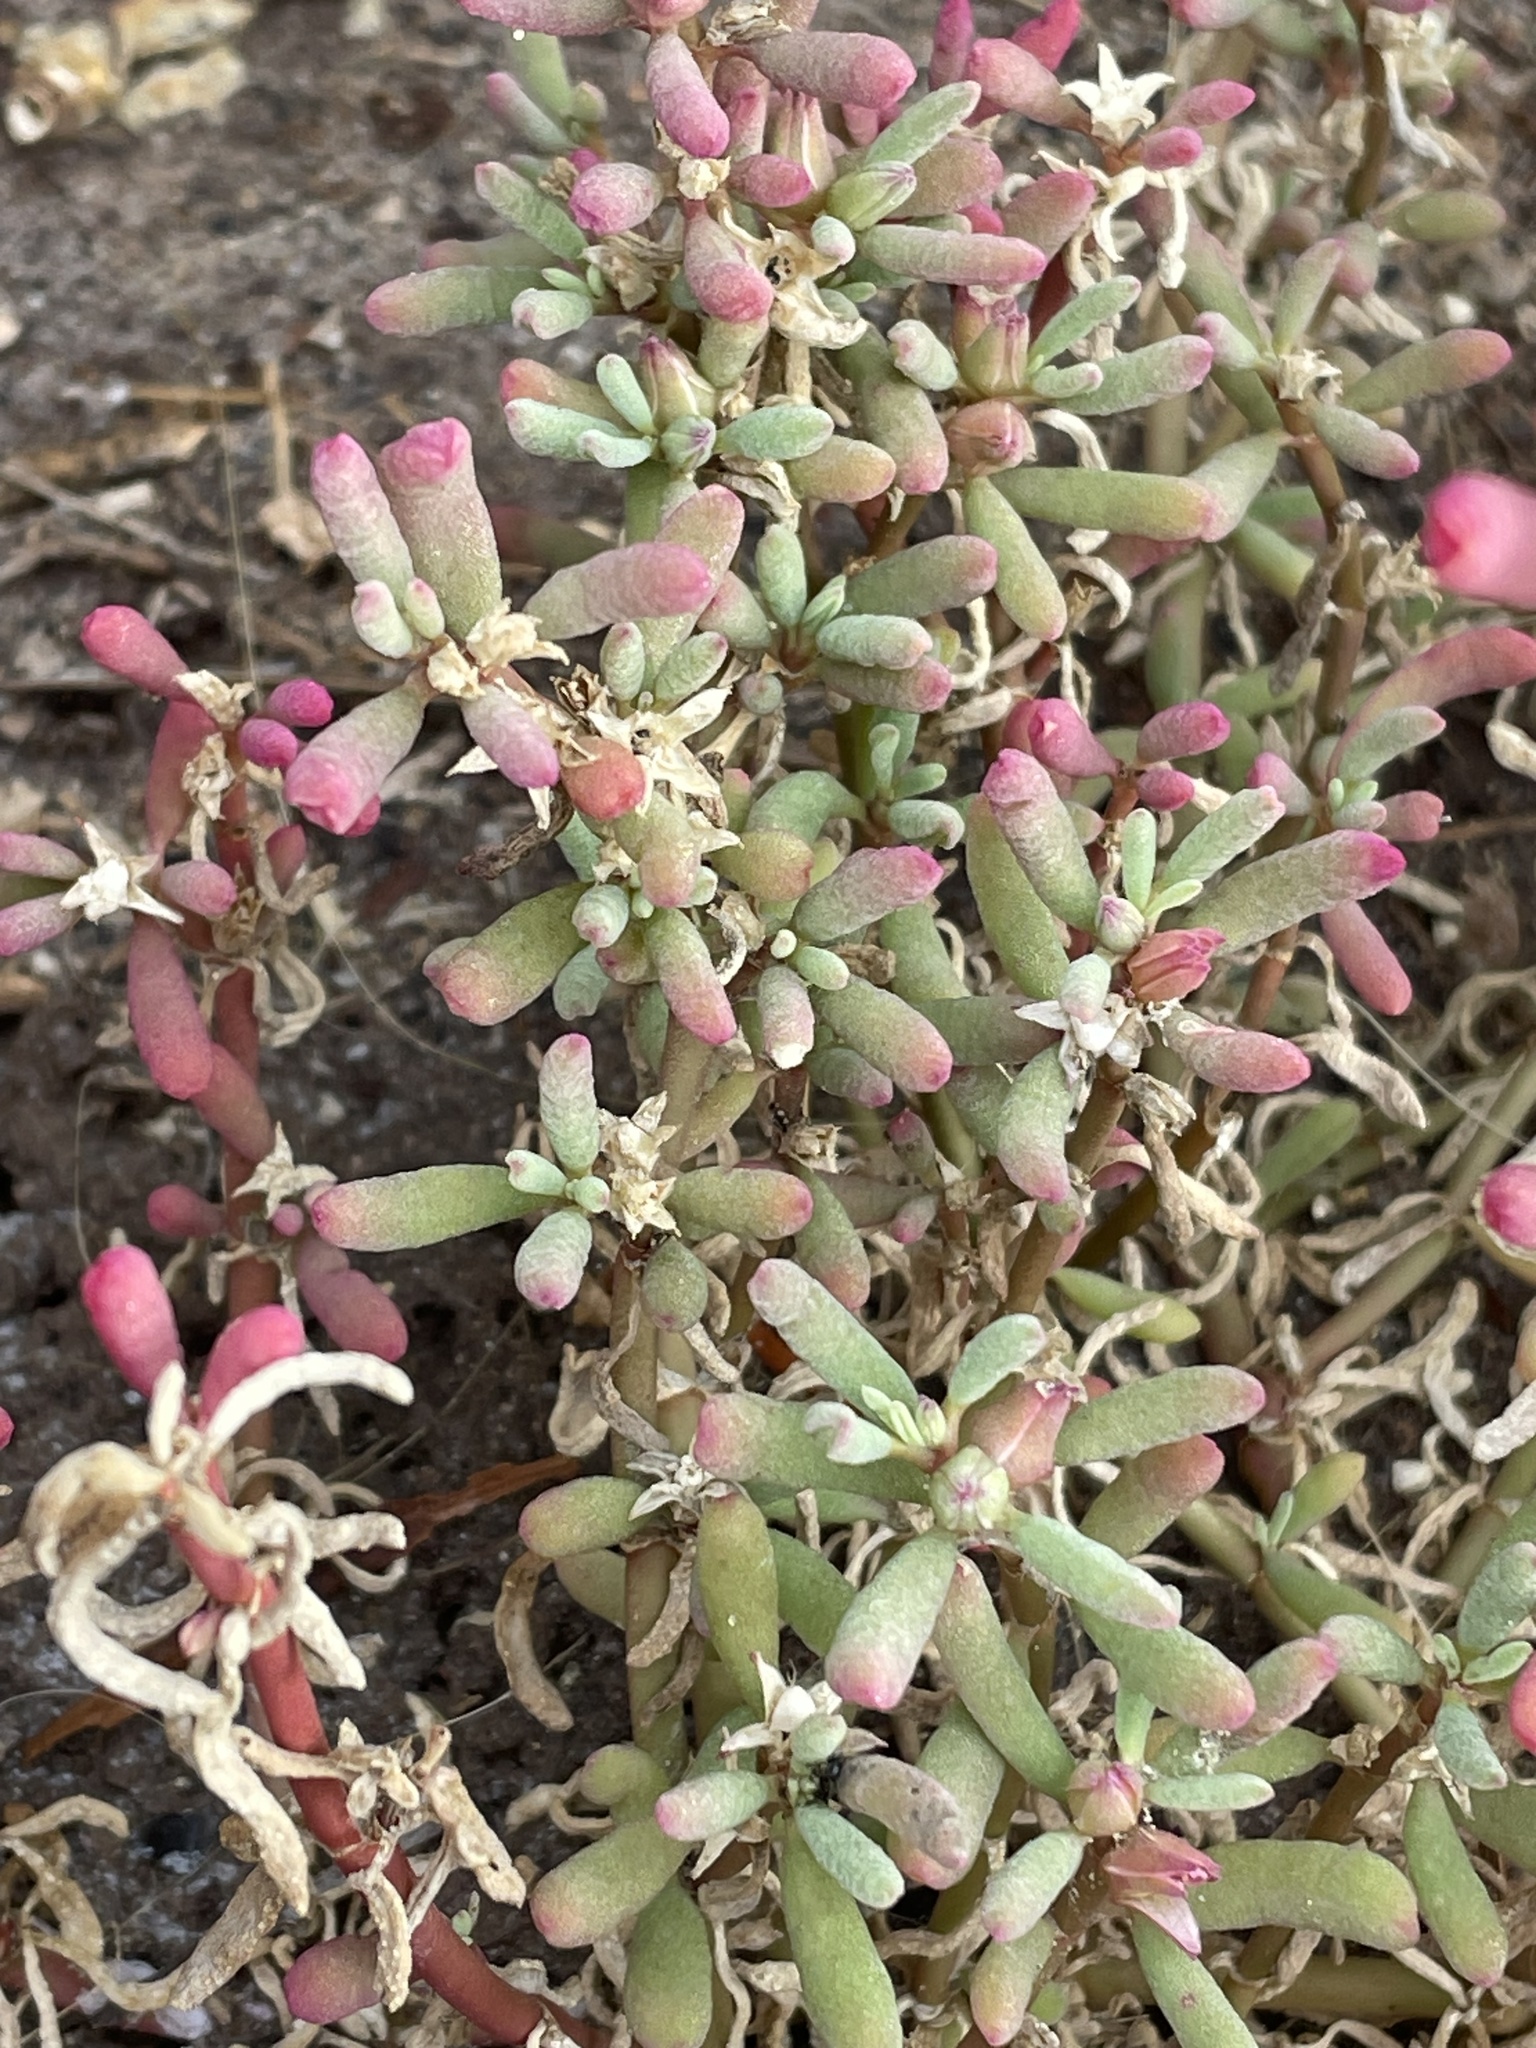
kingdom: Plantae
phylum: Tracheophyta
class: Magnoliopsida
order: Caryophyllales
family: Aizoaceae
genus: Sesuvium
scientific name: Sesuvium portulacastrum
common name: Sea-purslane
